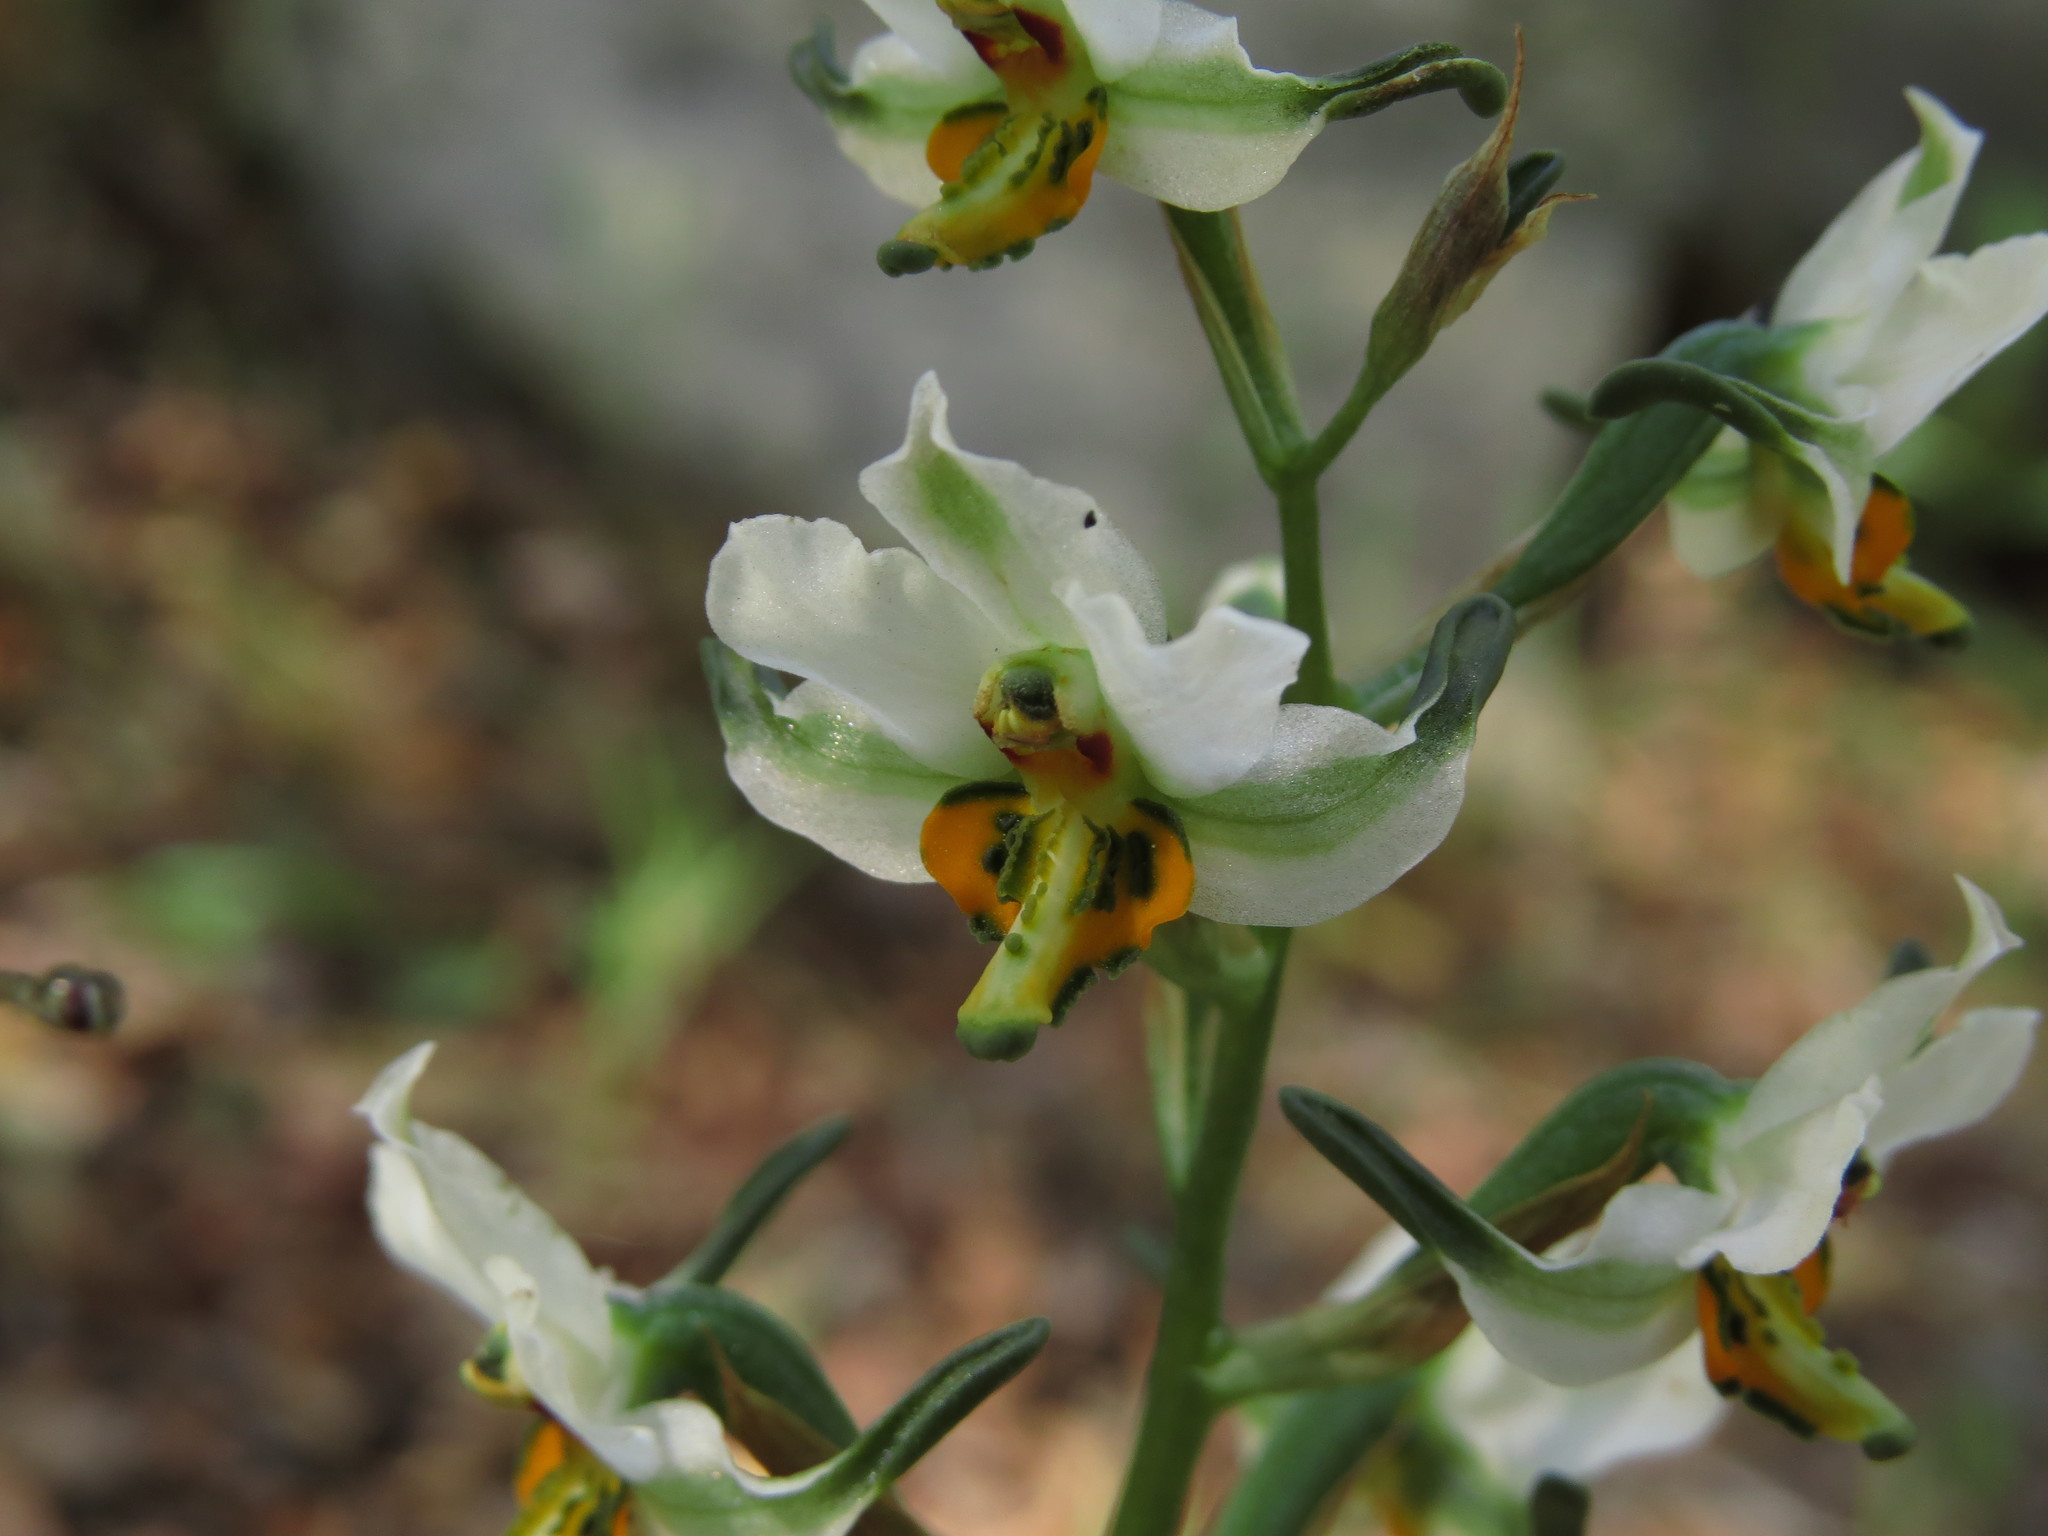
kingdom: Plantae
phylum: Tracheophyta
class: Liliopsida
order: Asparagales
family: Orchidaceae
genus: Gavilea
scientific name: Gavilea longibracteata
